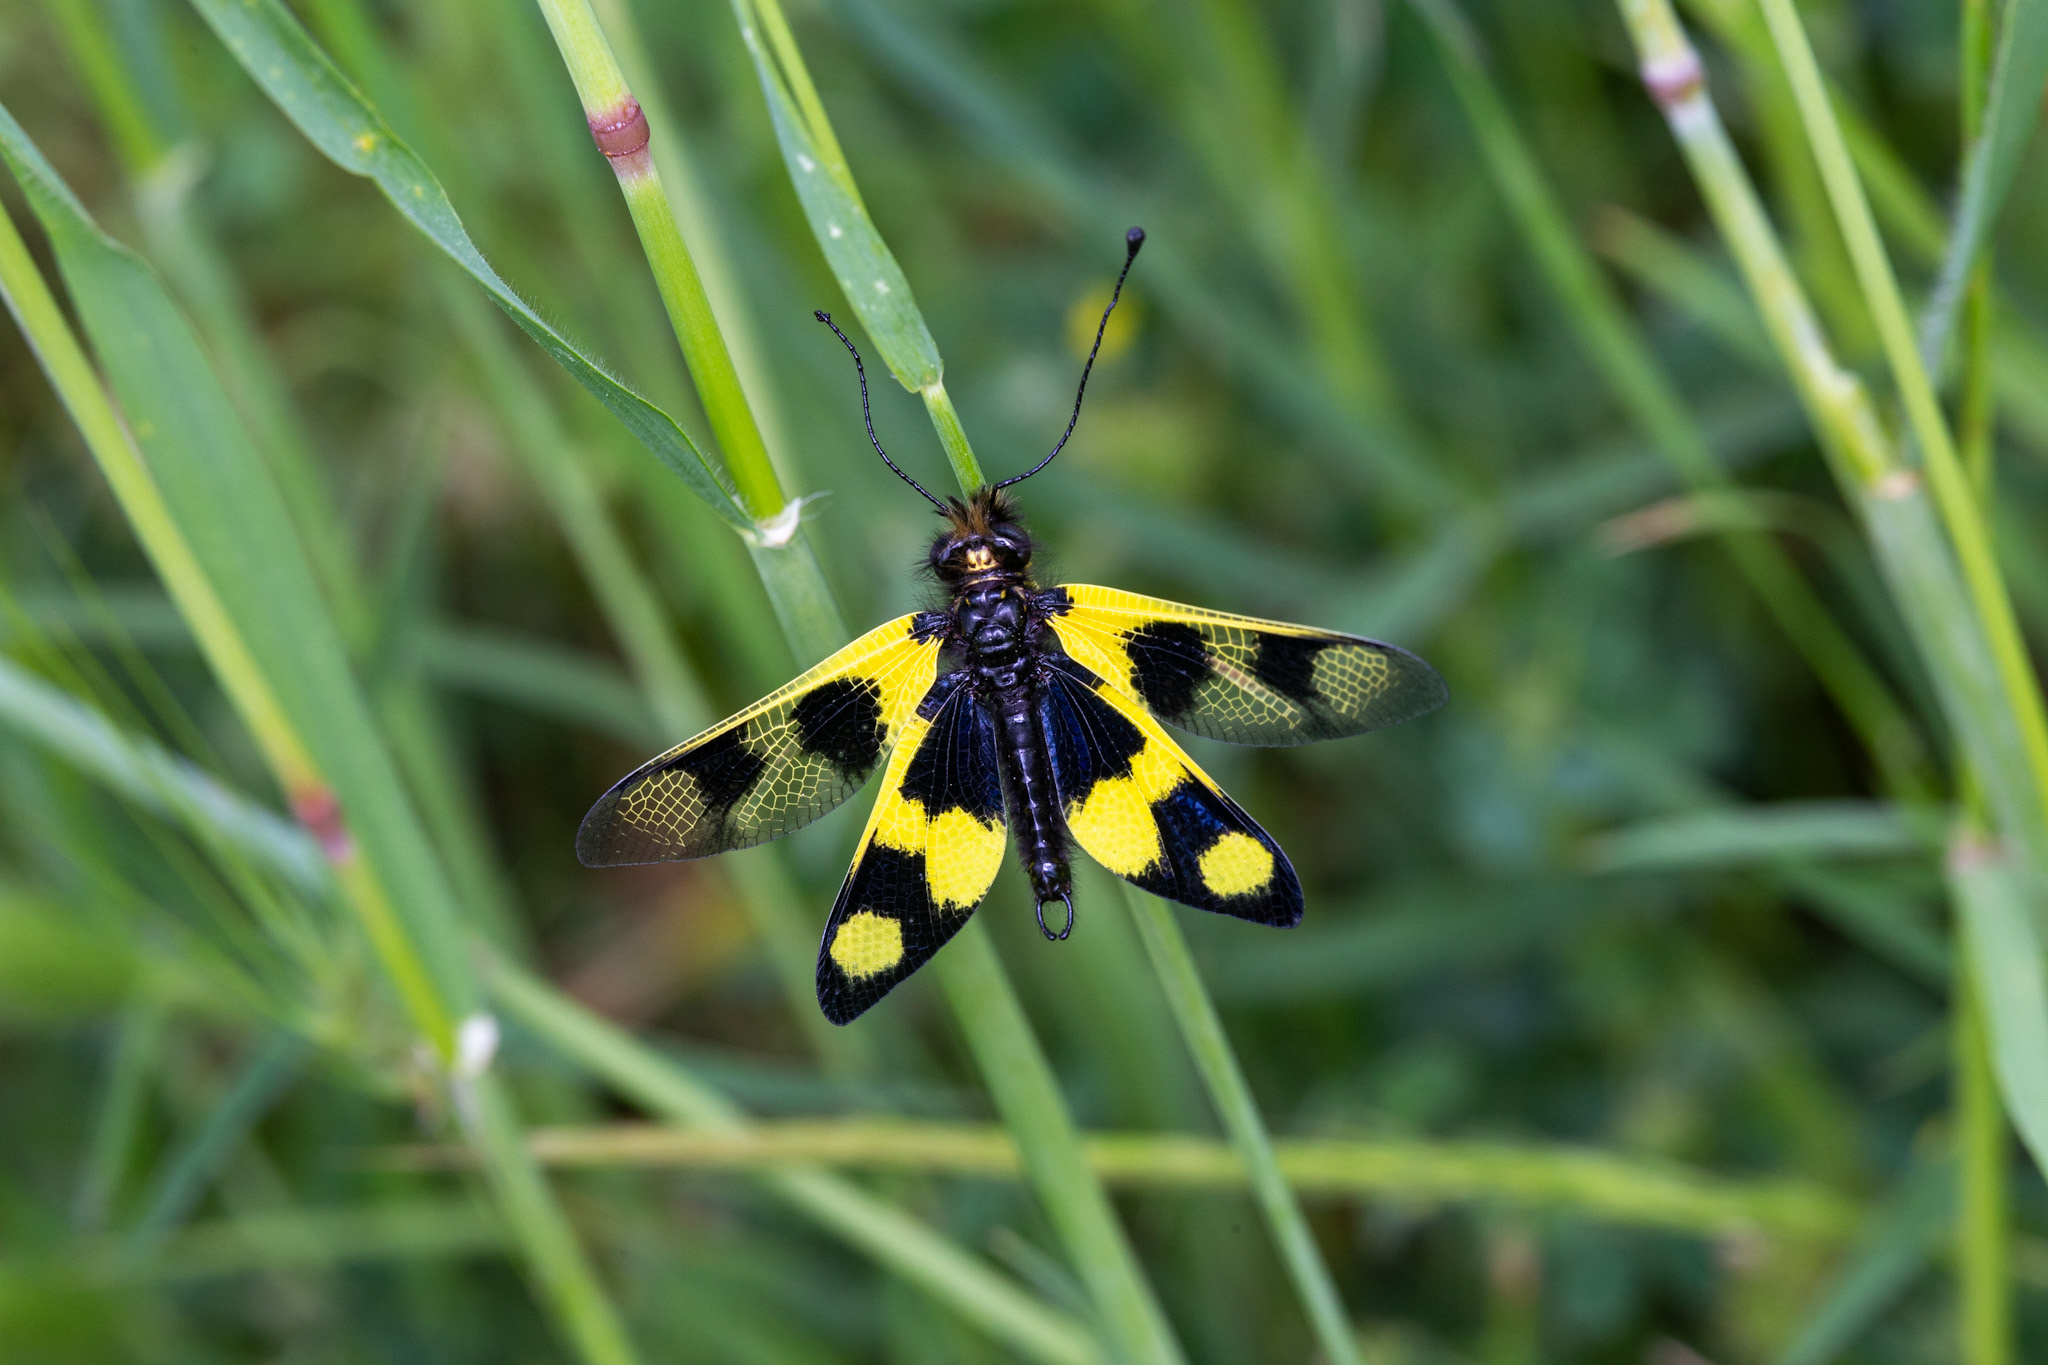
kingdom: Animalia
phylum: Arthropoda
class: Insecta
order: Neuroptera
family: Ascalaphidae
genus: Libelloides
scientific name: Libelloides macaronius
